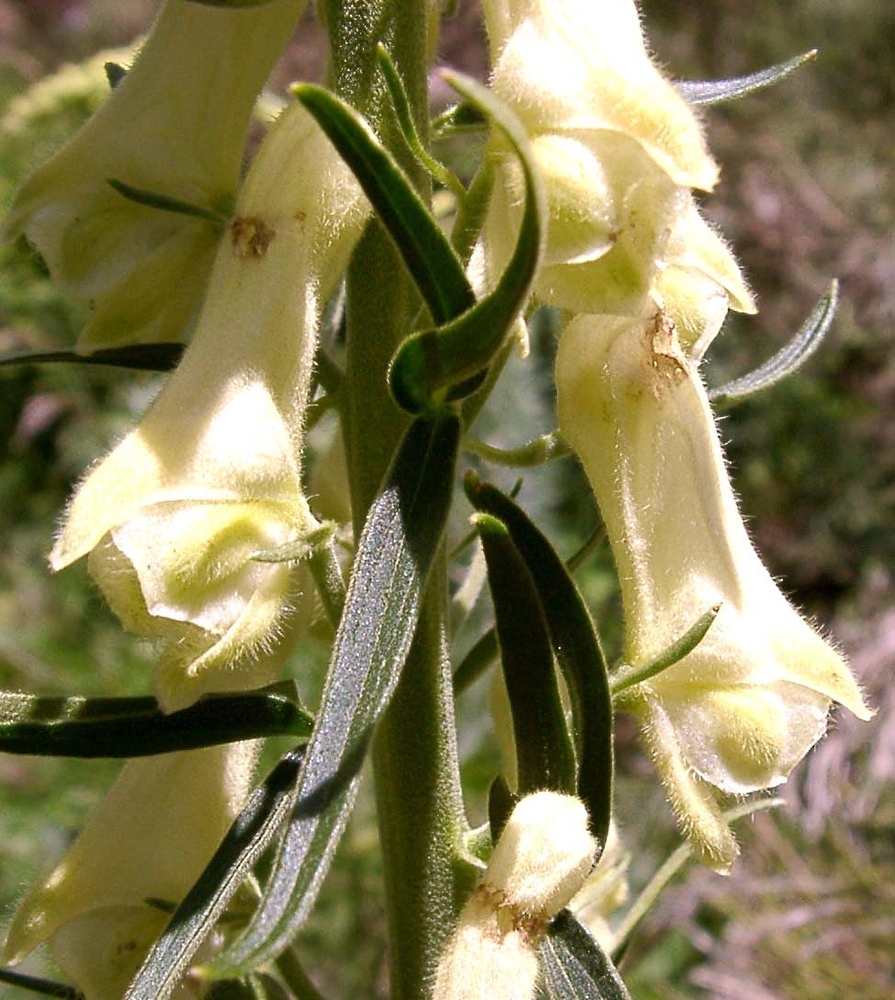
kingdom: Plantae
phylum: Tracheophyta
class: Magnoliopsida
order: Ranunculales
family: Ranunculaceae
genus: Aconitum
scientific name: Aconitum lycoctonum
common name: Wolf's-bane
